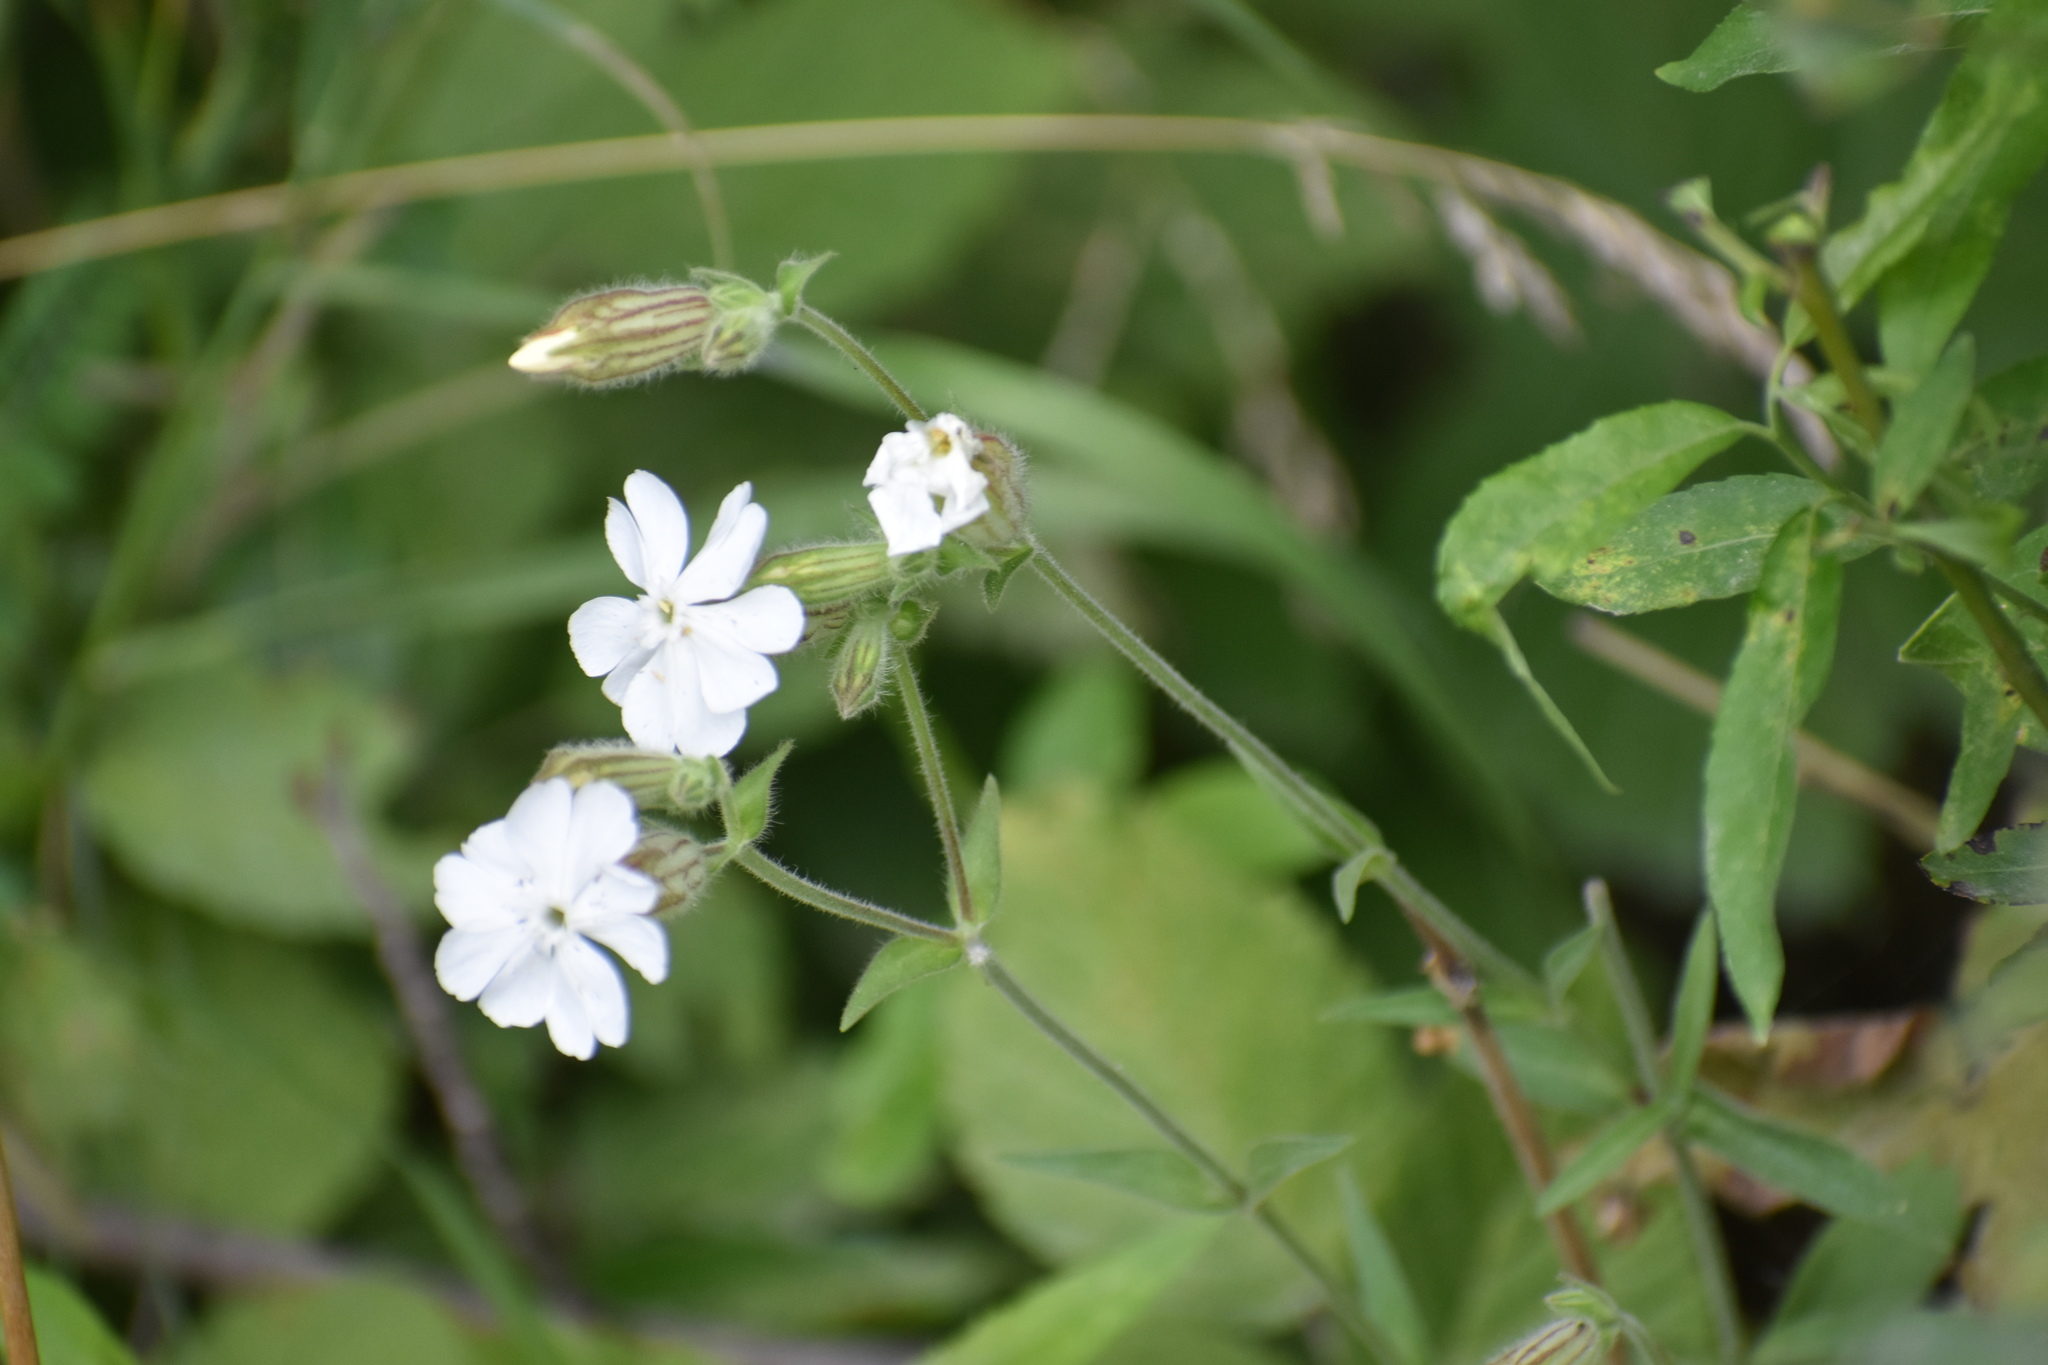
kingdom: Plantae
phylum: Tracheophyta
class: Magnoliopsida
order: Caryophyllales
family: Caryophyllaceae
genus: Silene
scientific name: Silene latifolia
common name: White campion
